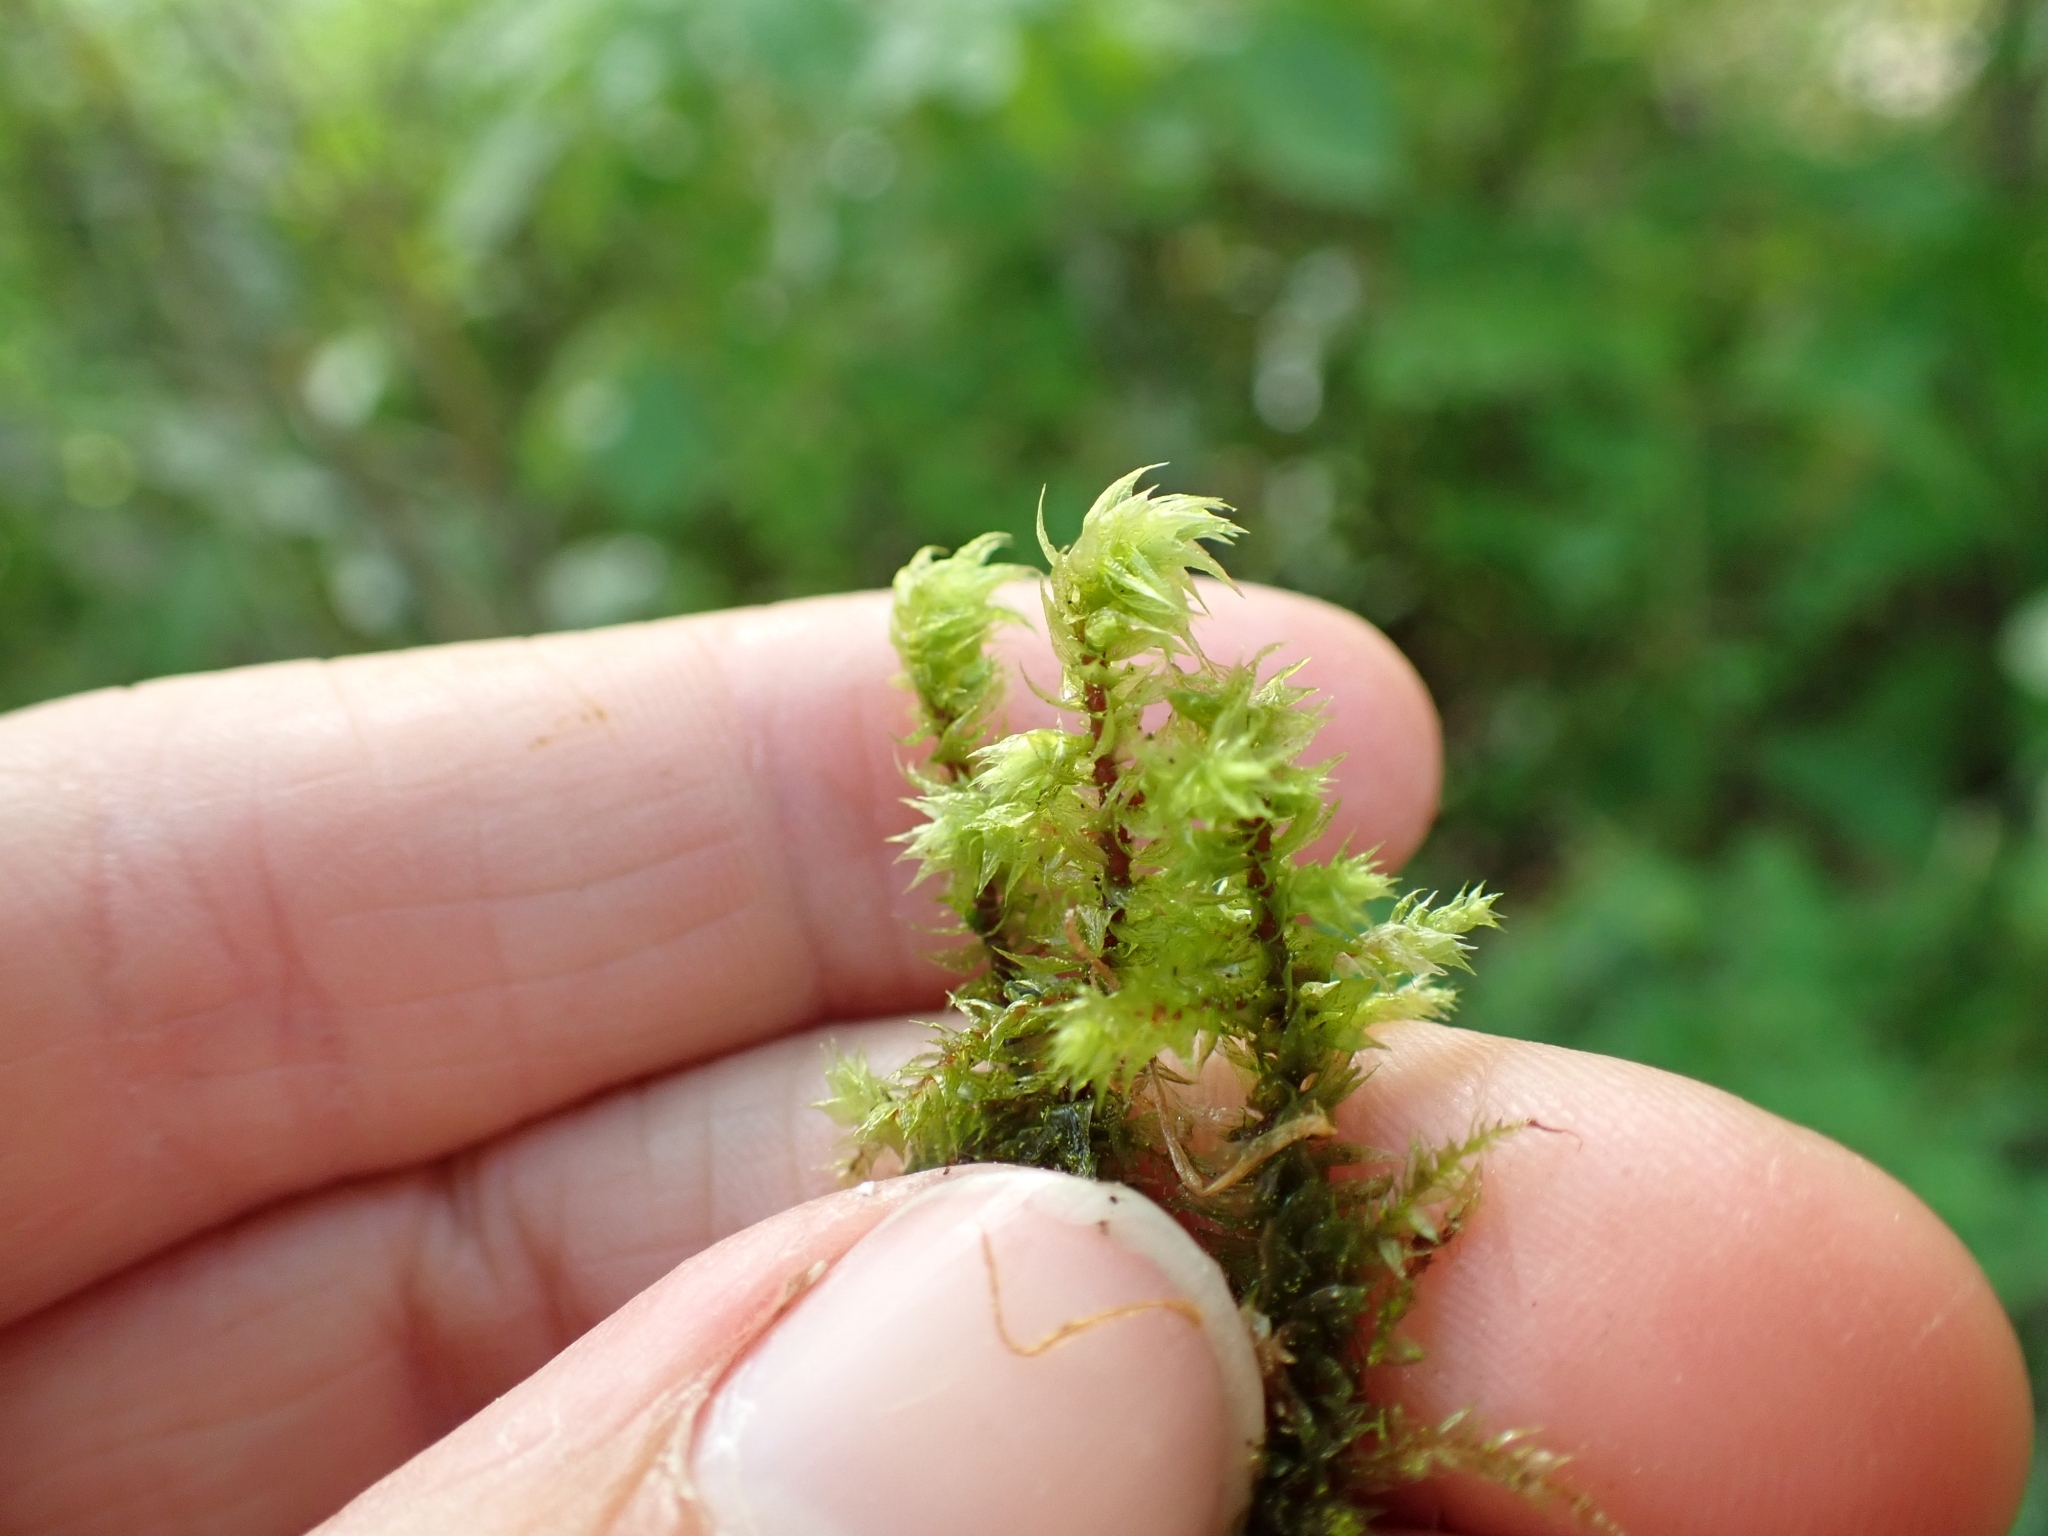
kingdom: Plantae
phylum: Bryophyta
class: Bryopsida
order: Hypnales
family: Hylocomiaceae
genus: Hylocomiadelphus
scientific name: Hylocomiadelphus triquetrus
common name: Rough goose neck moss
